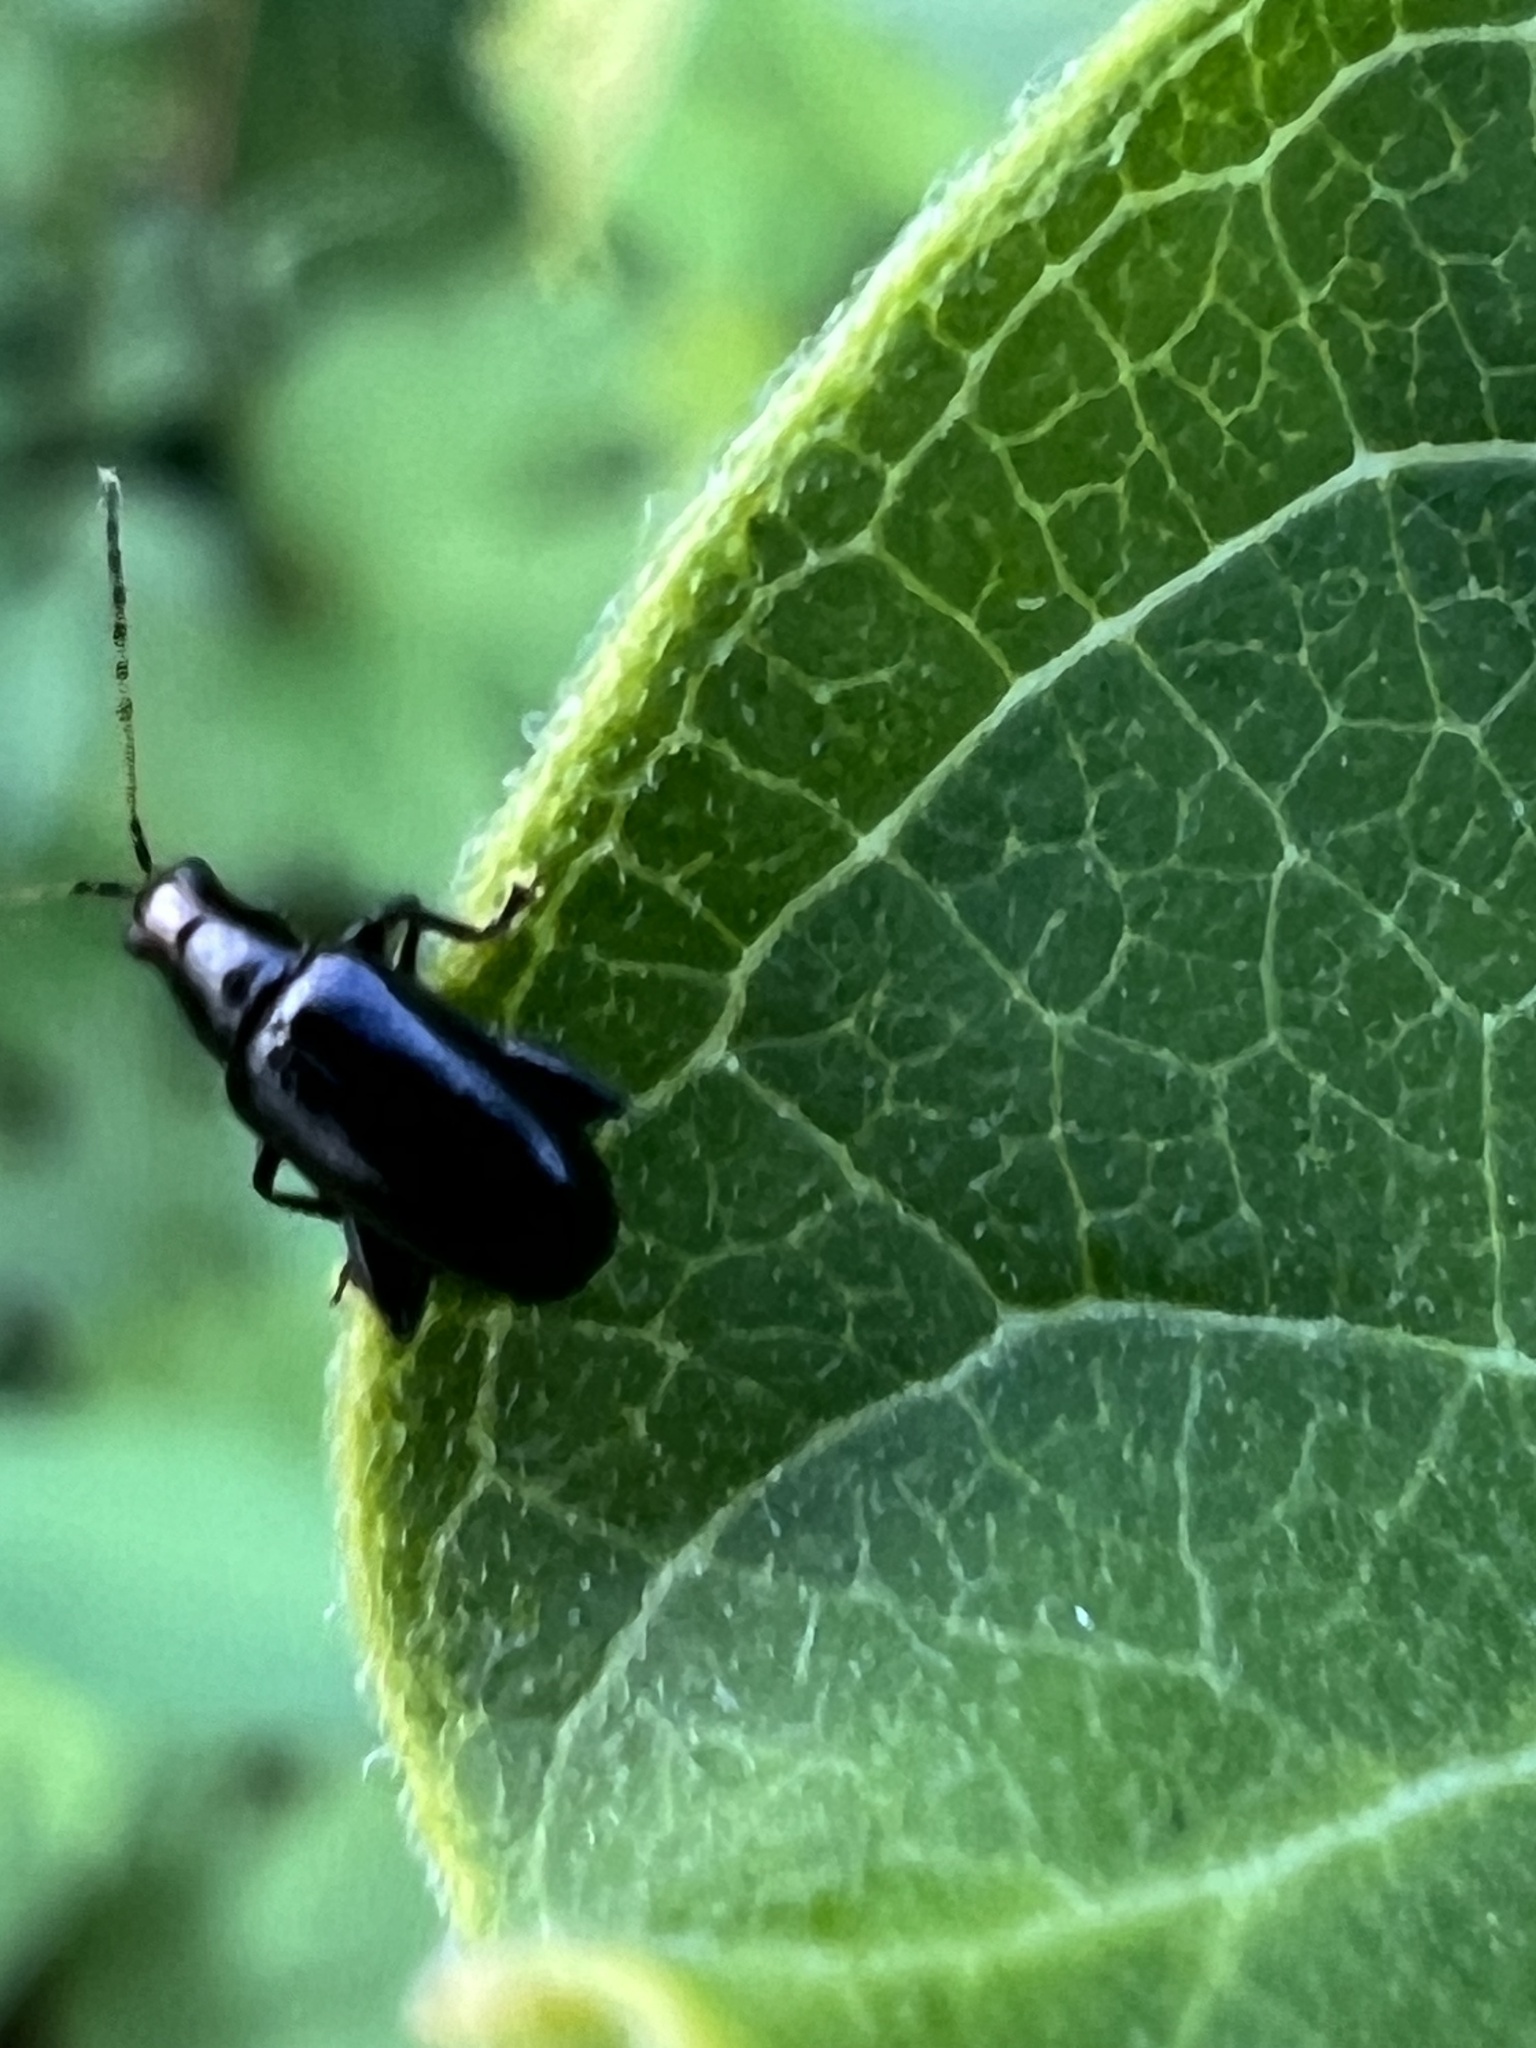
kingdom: Animalia
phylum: Arthropoda
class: Insecta
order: Coleoptera
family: Chrysomelidae
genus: Systena
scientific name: Systena frontalis
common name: Red-headed flea beetle
